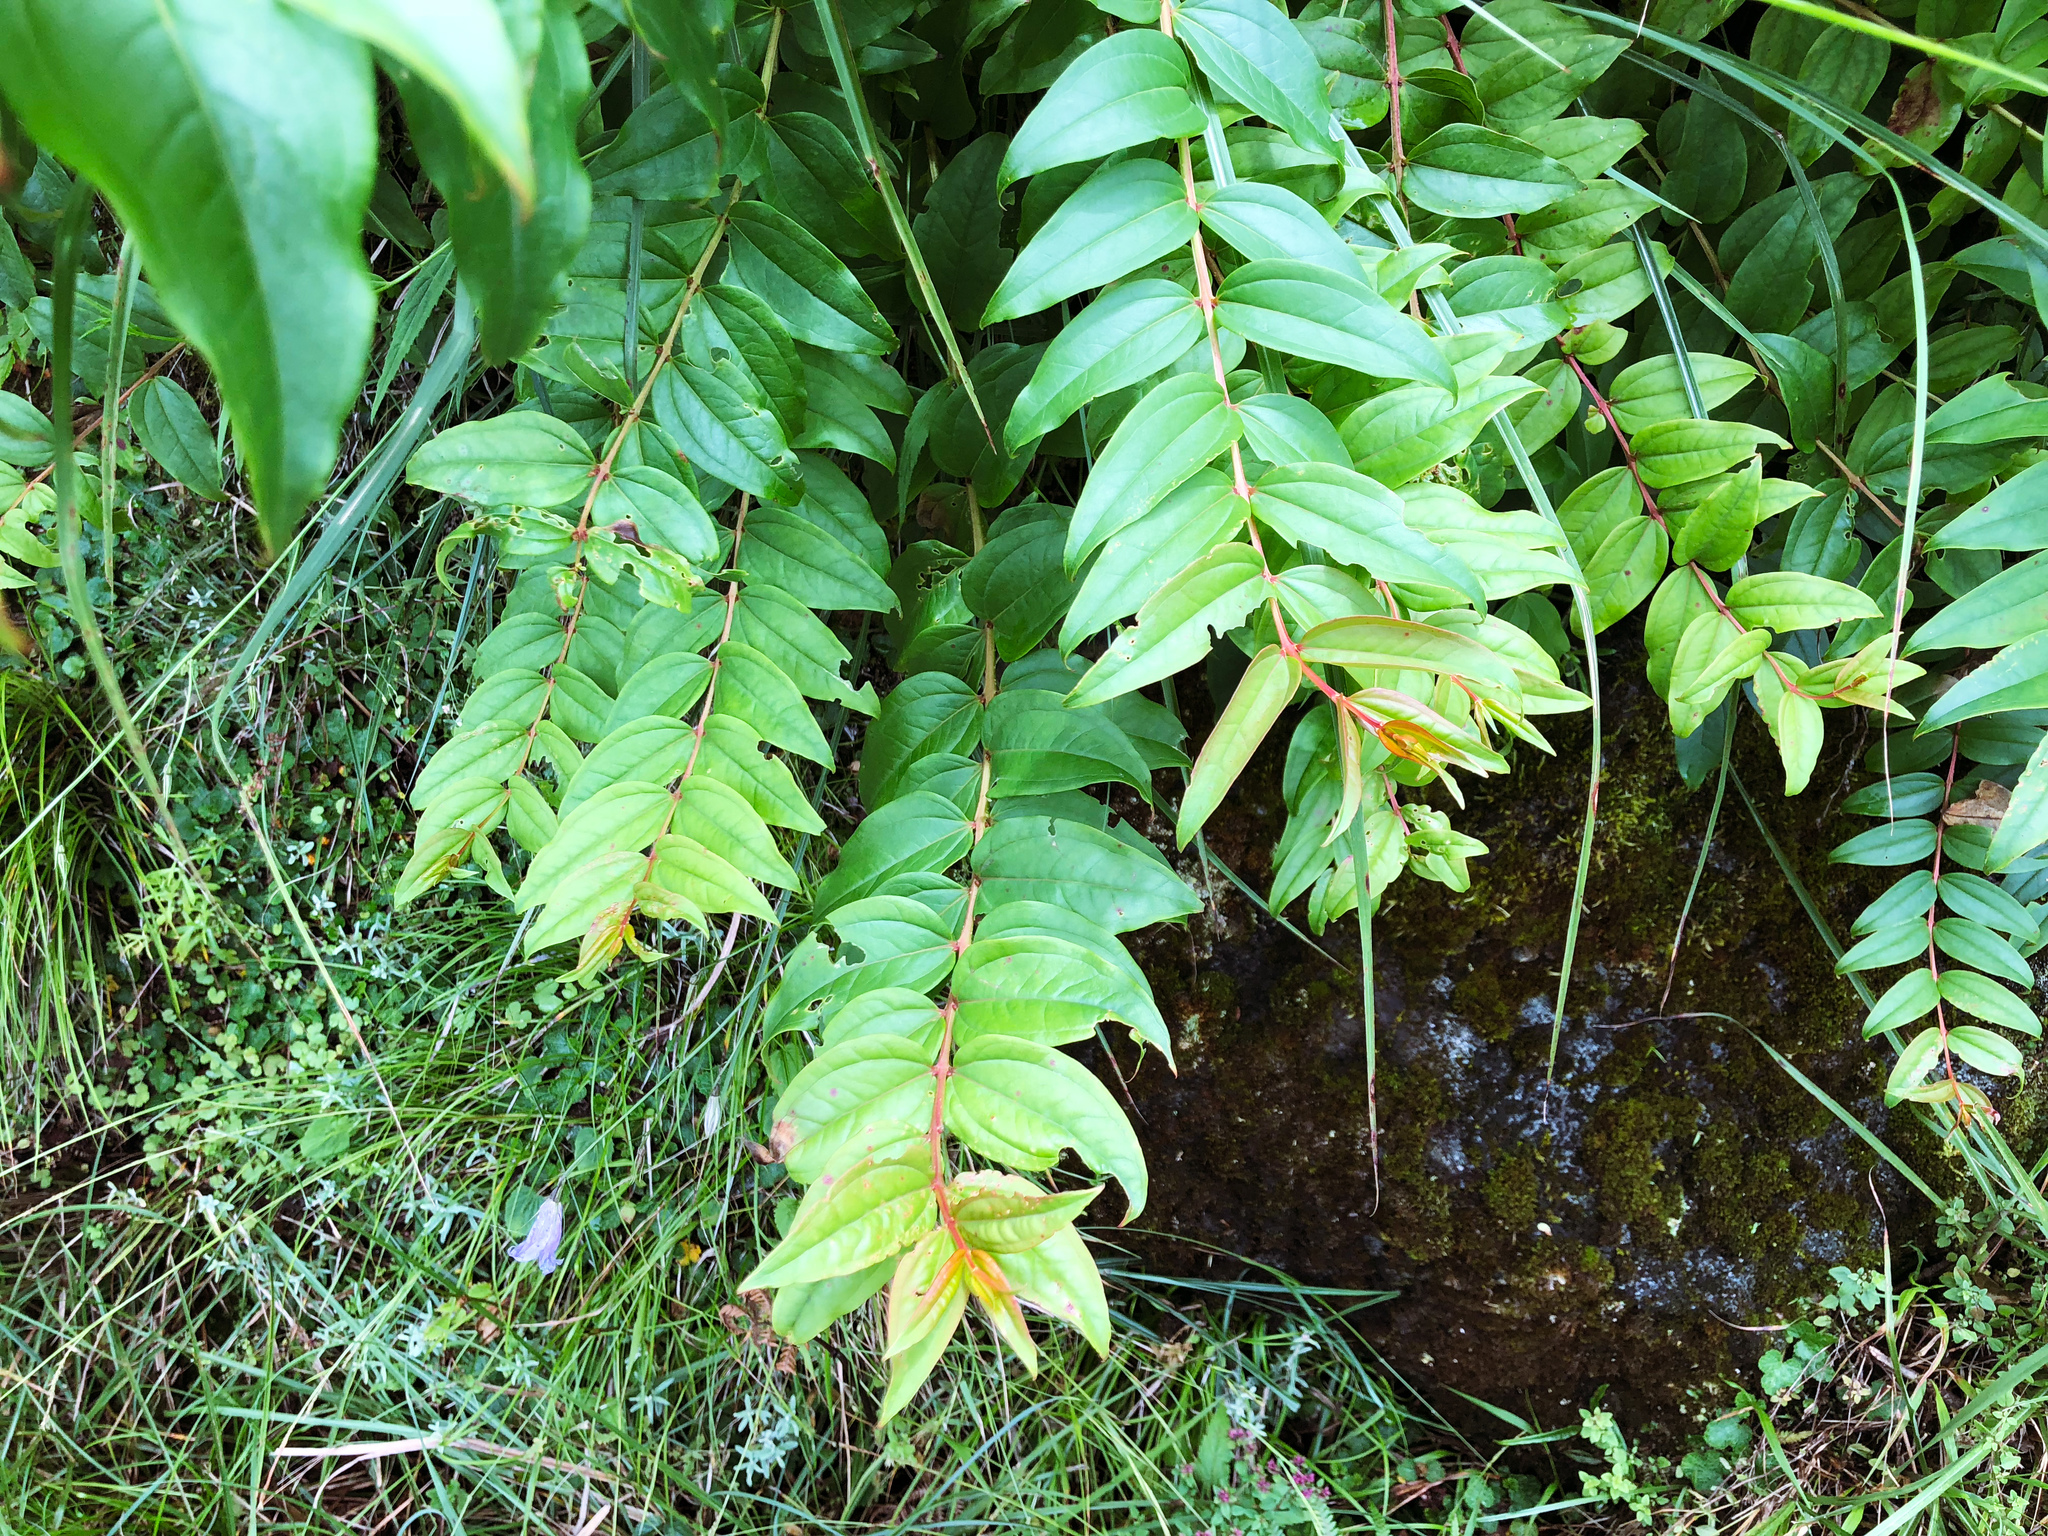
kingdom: Plantae
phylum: Tracheophyta
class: Magnoliopsida
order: Cucurbitales
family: Coriariaceae
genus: Coriaria
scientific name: Coriaria japonica
